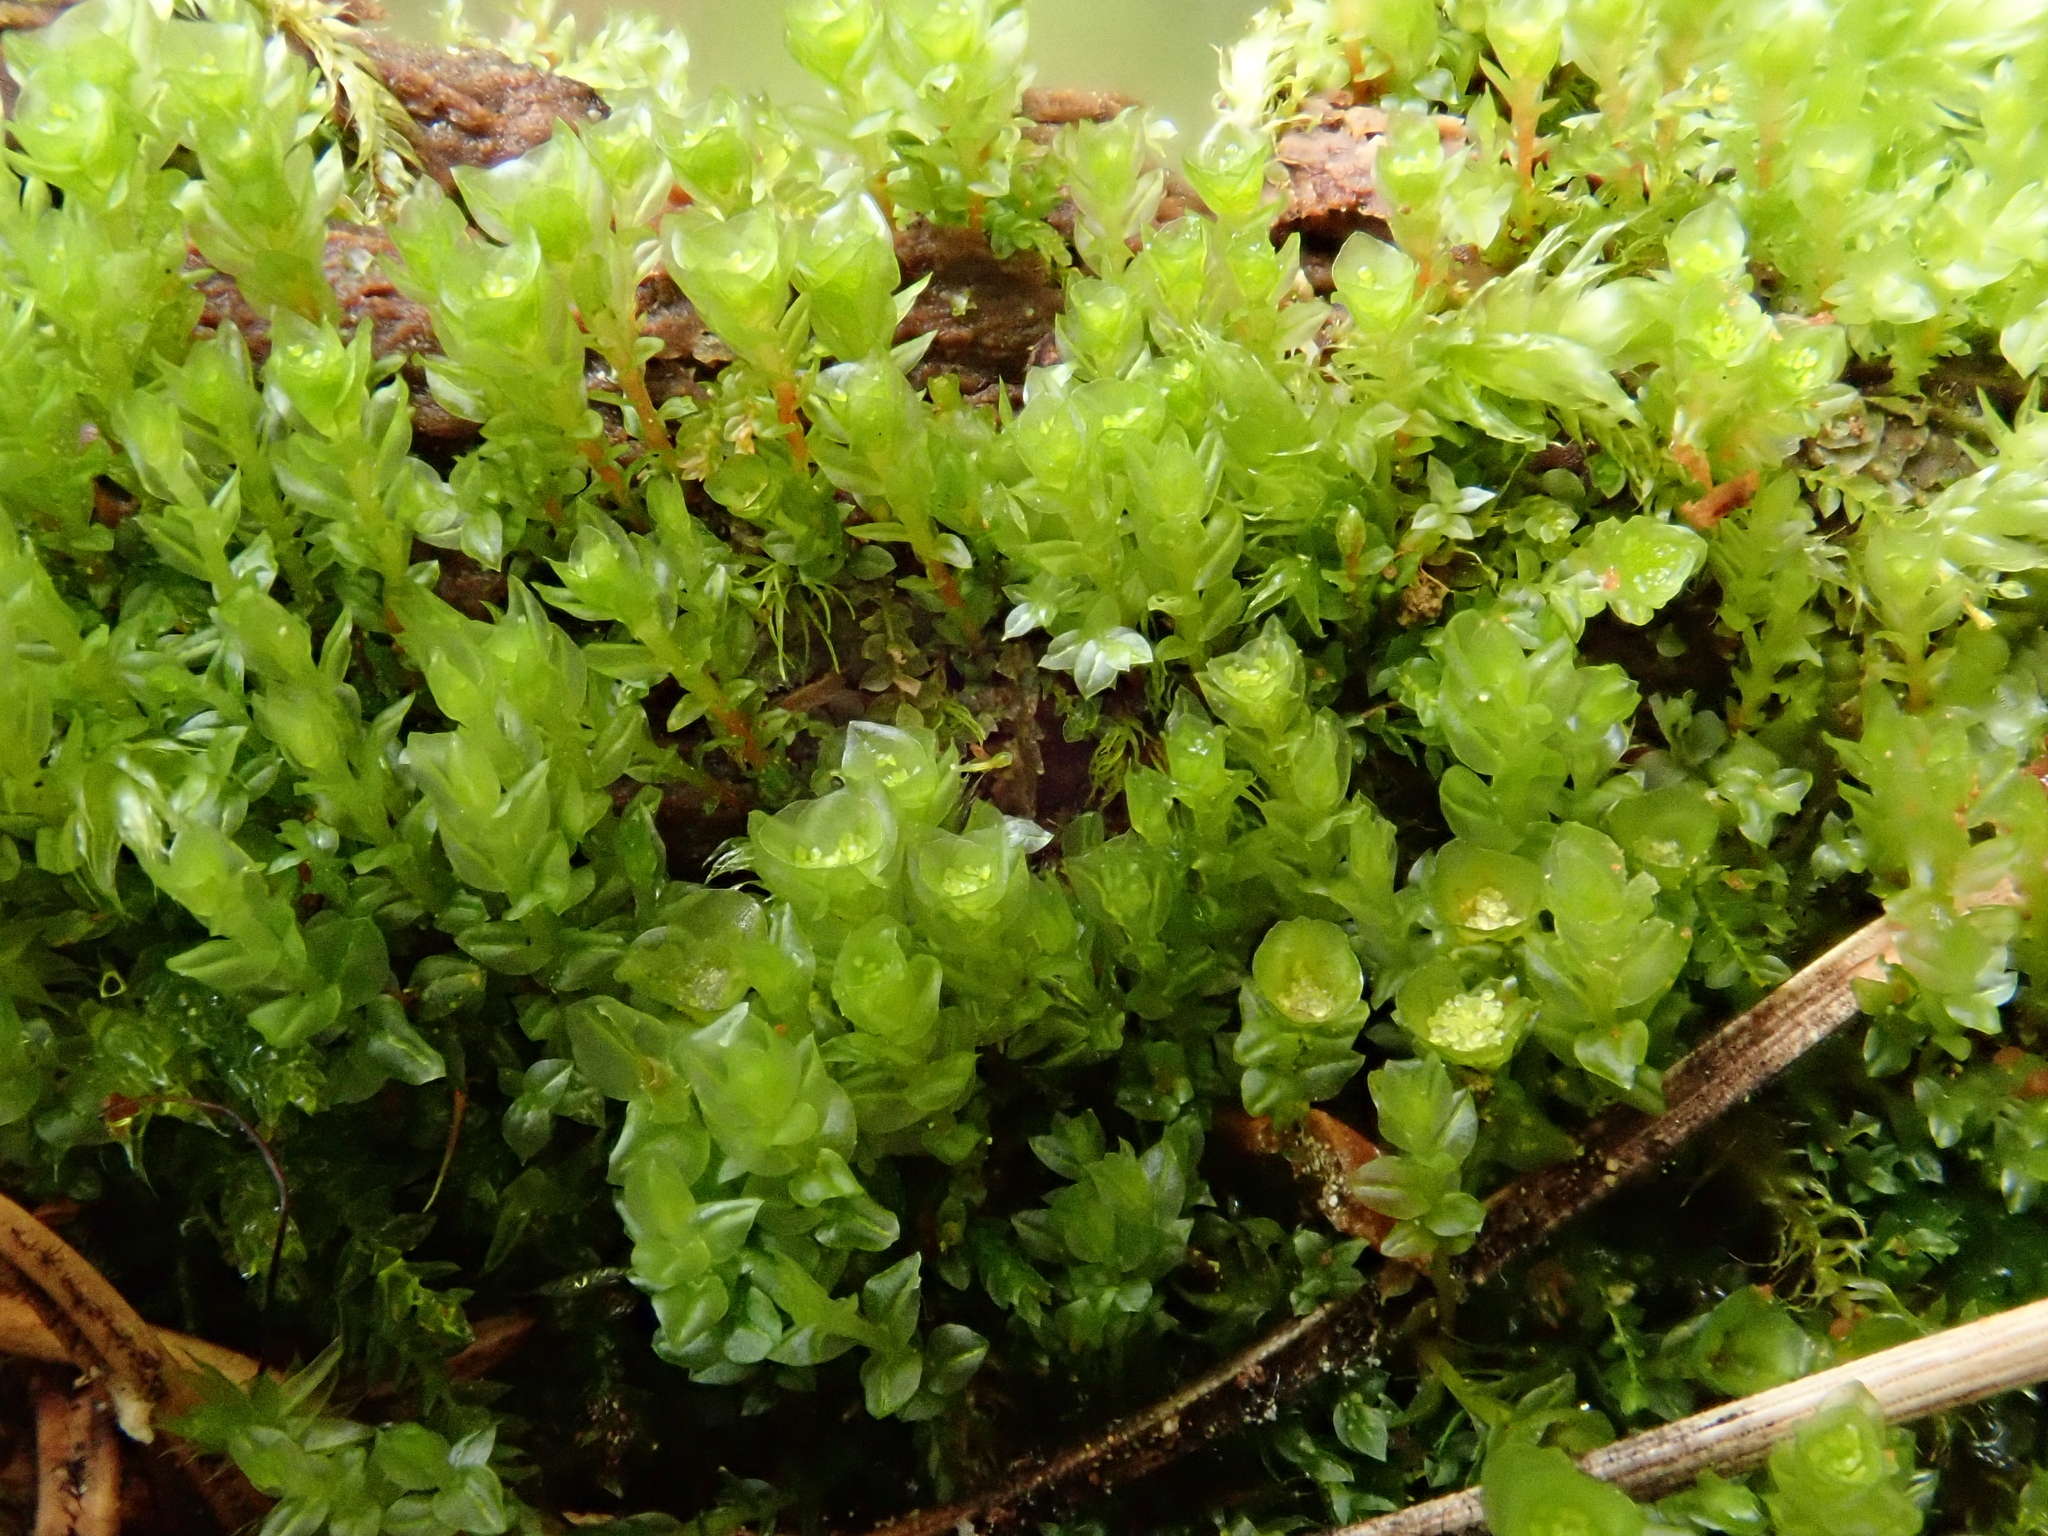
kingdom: Plantae
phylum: Bryophyta
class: Polytrichopsida
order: Tetraphidales
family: Tetraphidaceae
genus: Tetraphis
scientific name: Tetraphis pellucida
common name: Common four-toothed moss
